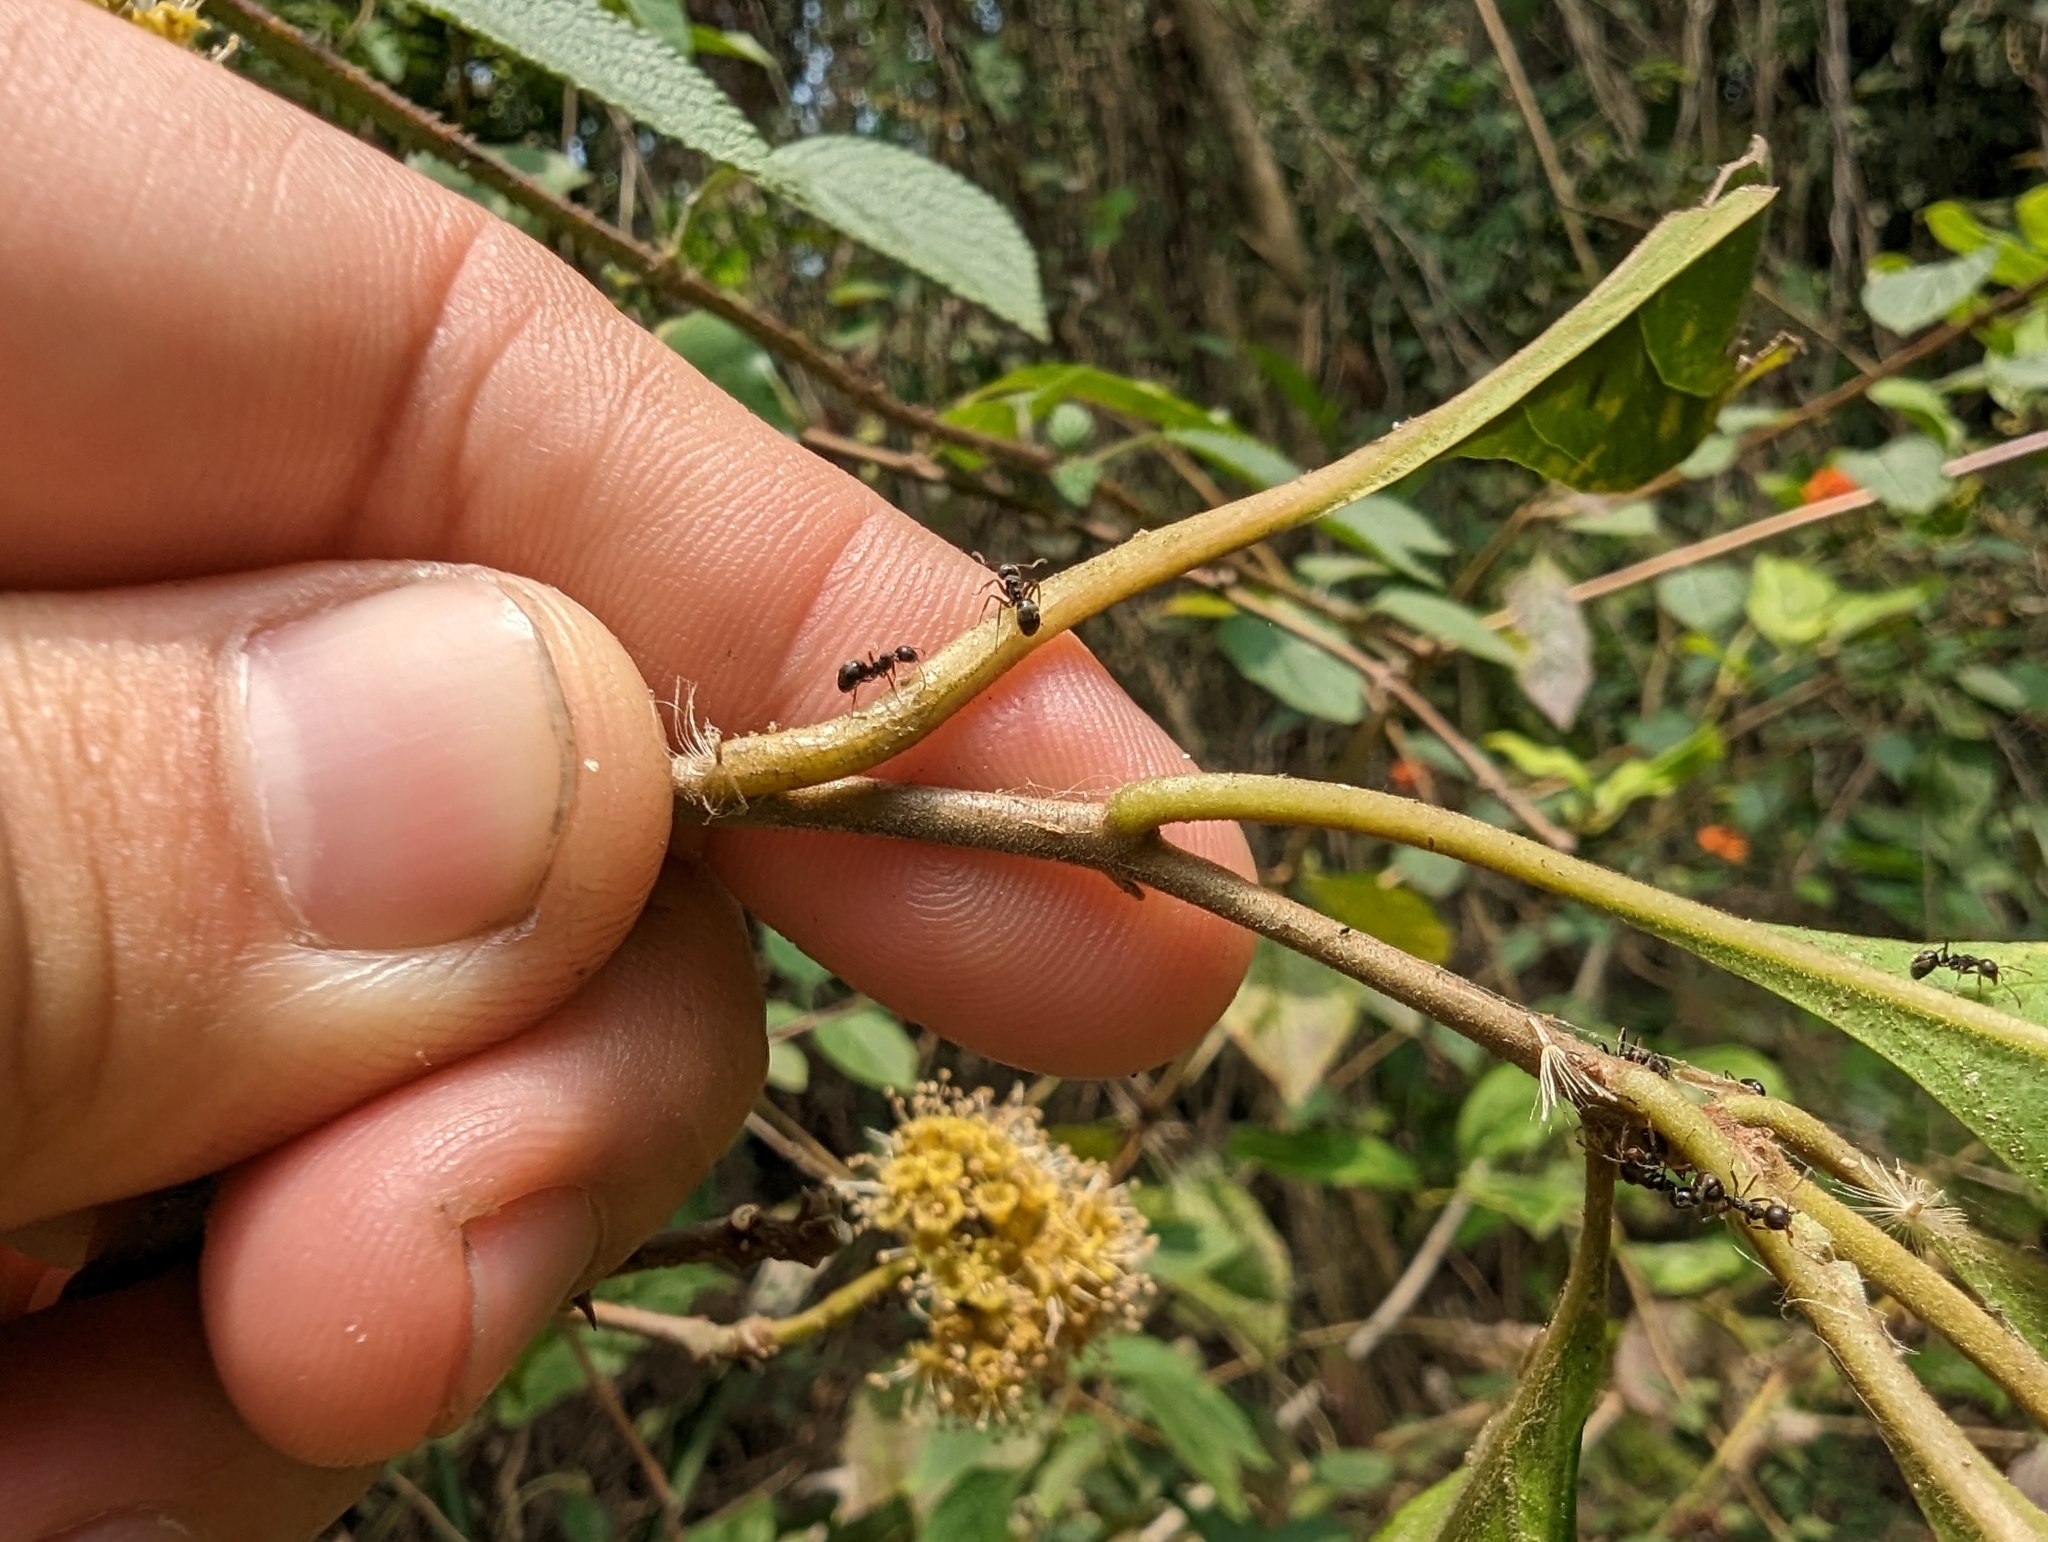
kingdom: Plantae
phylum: Tracheophyta
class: Magnoliopsida
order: Caryophyllales
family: Nyctaginaceae
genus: Pisonia
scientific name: Pisonia aculeata
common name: Cockspur vine
